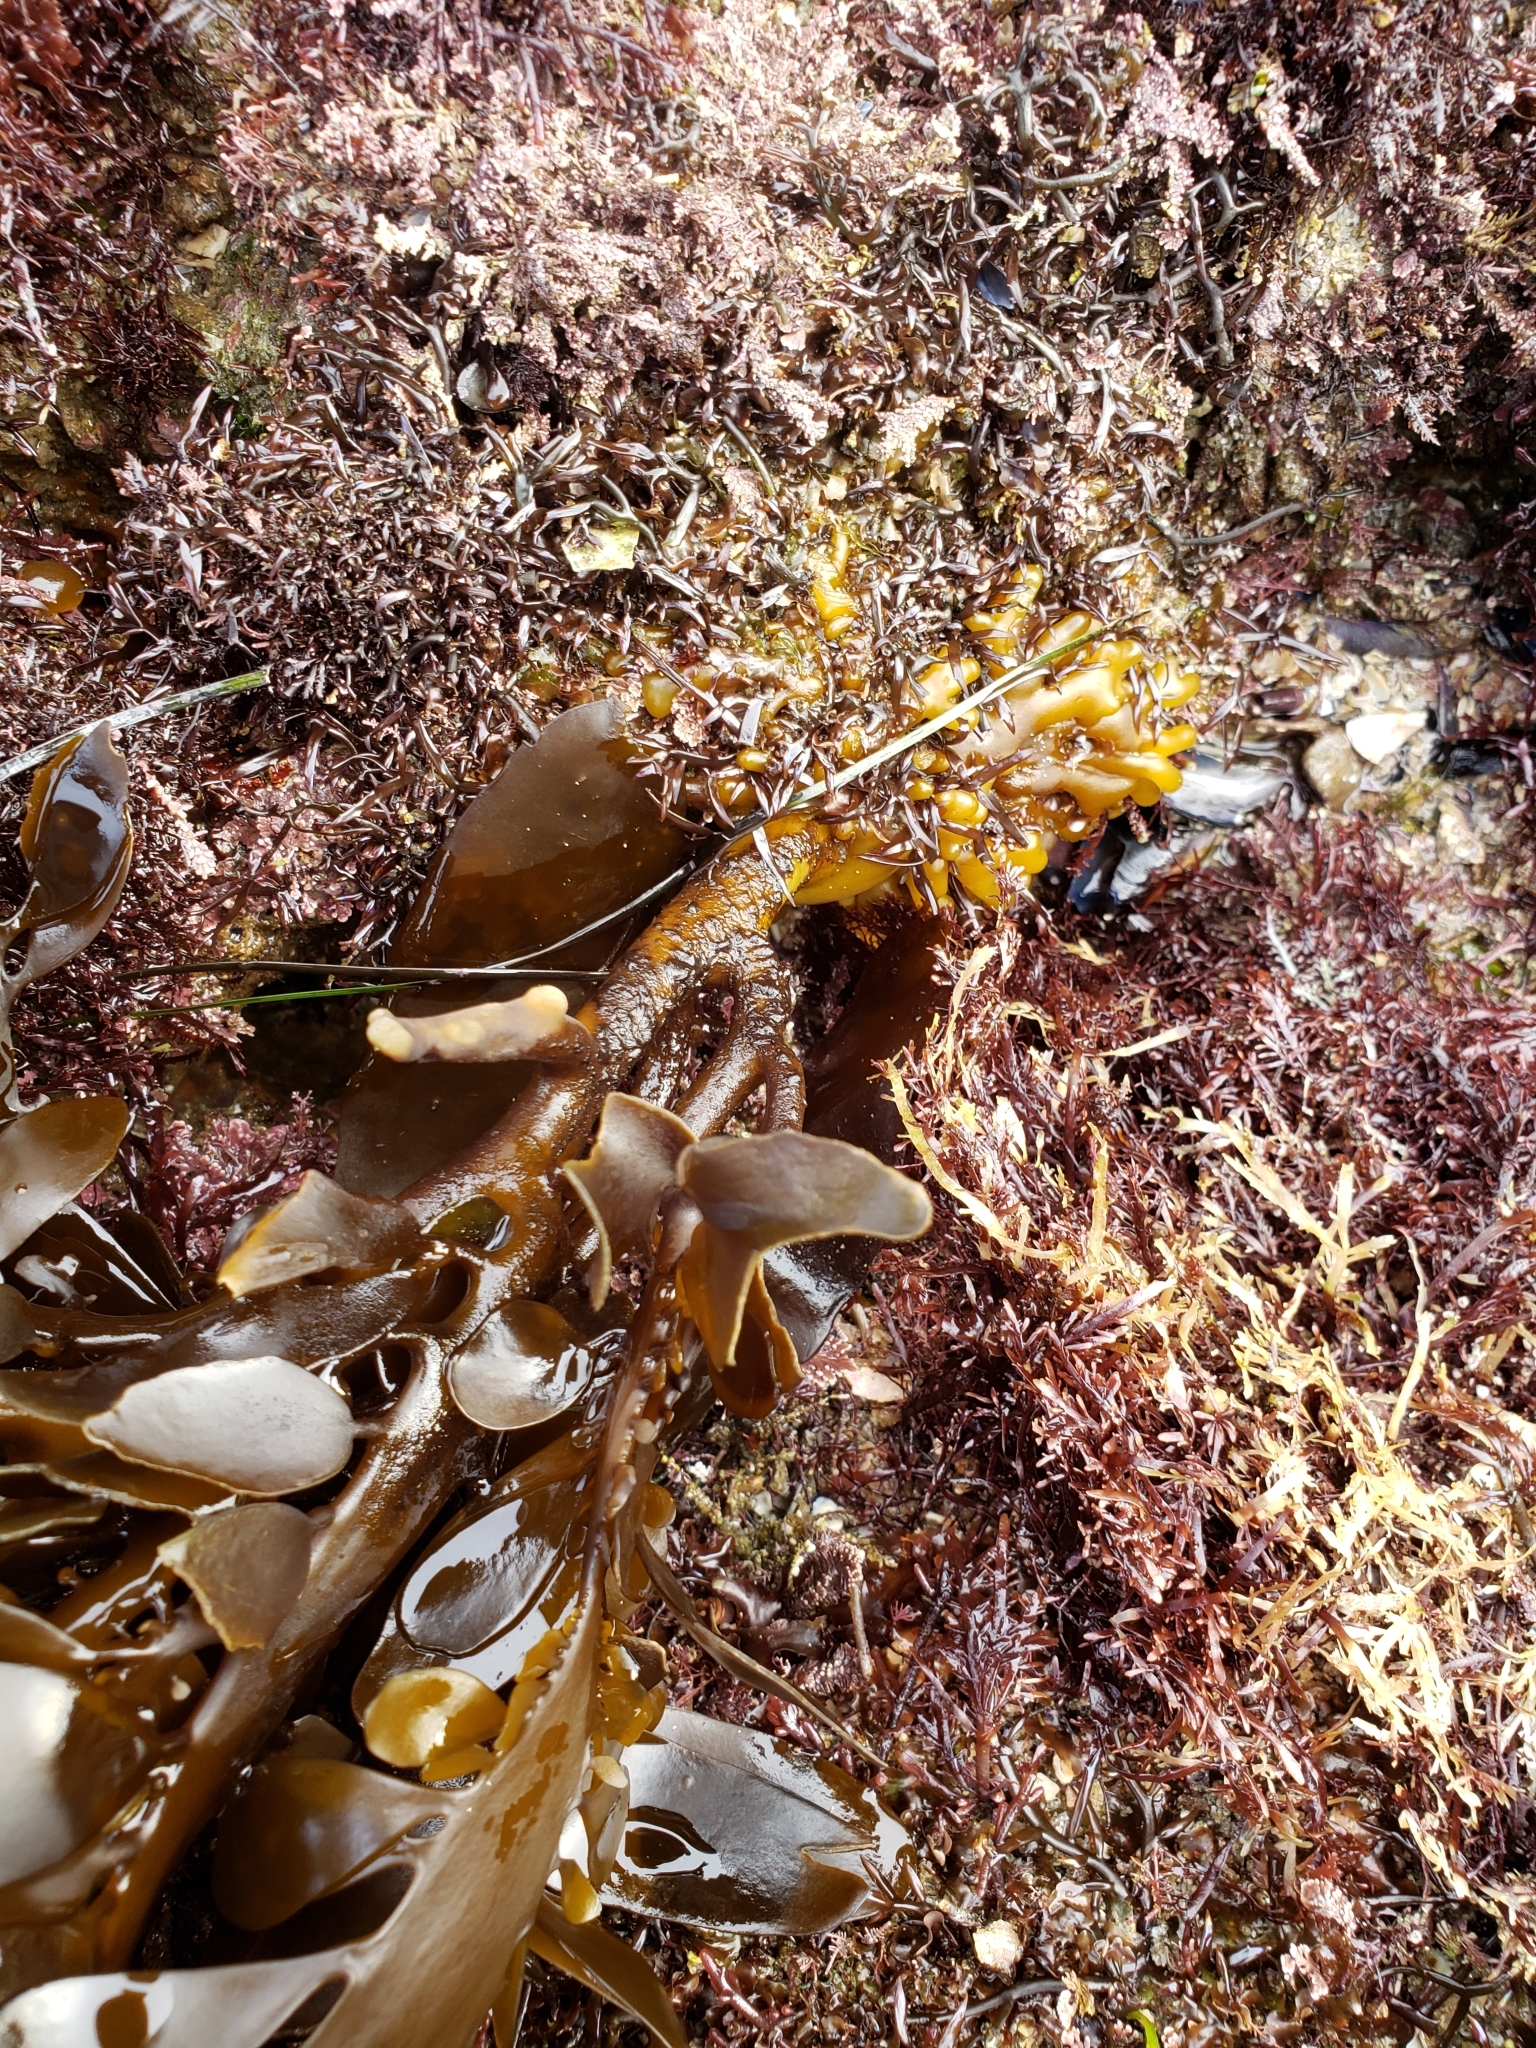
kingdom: Chromista
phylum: Ochrophyta
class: Phaeophyceae
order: Laminariales
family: Lessoniaceae
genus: Egregia
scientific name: Egregia menziesii
